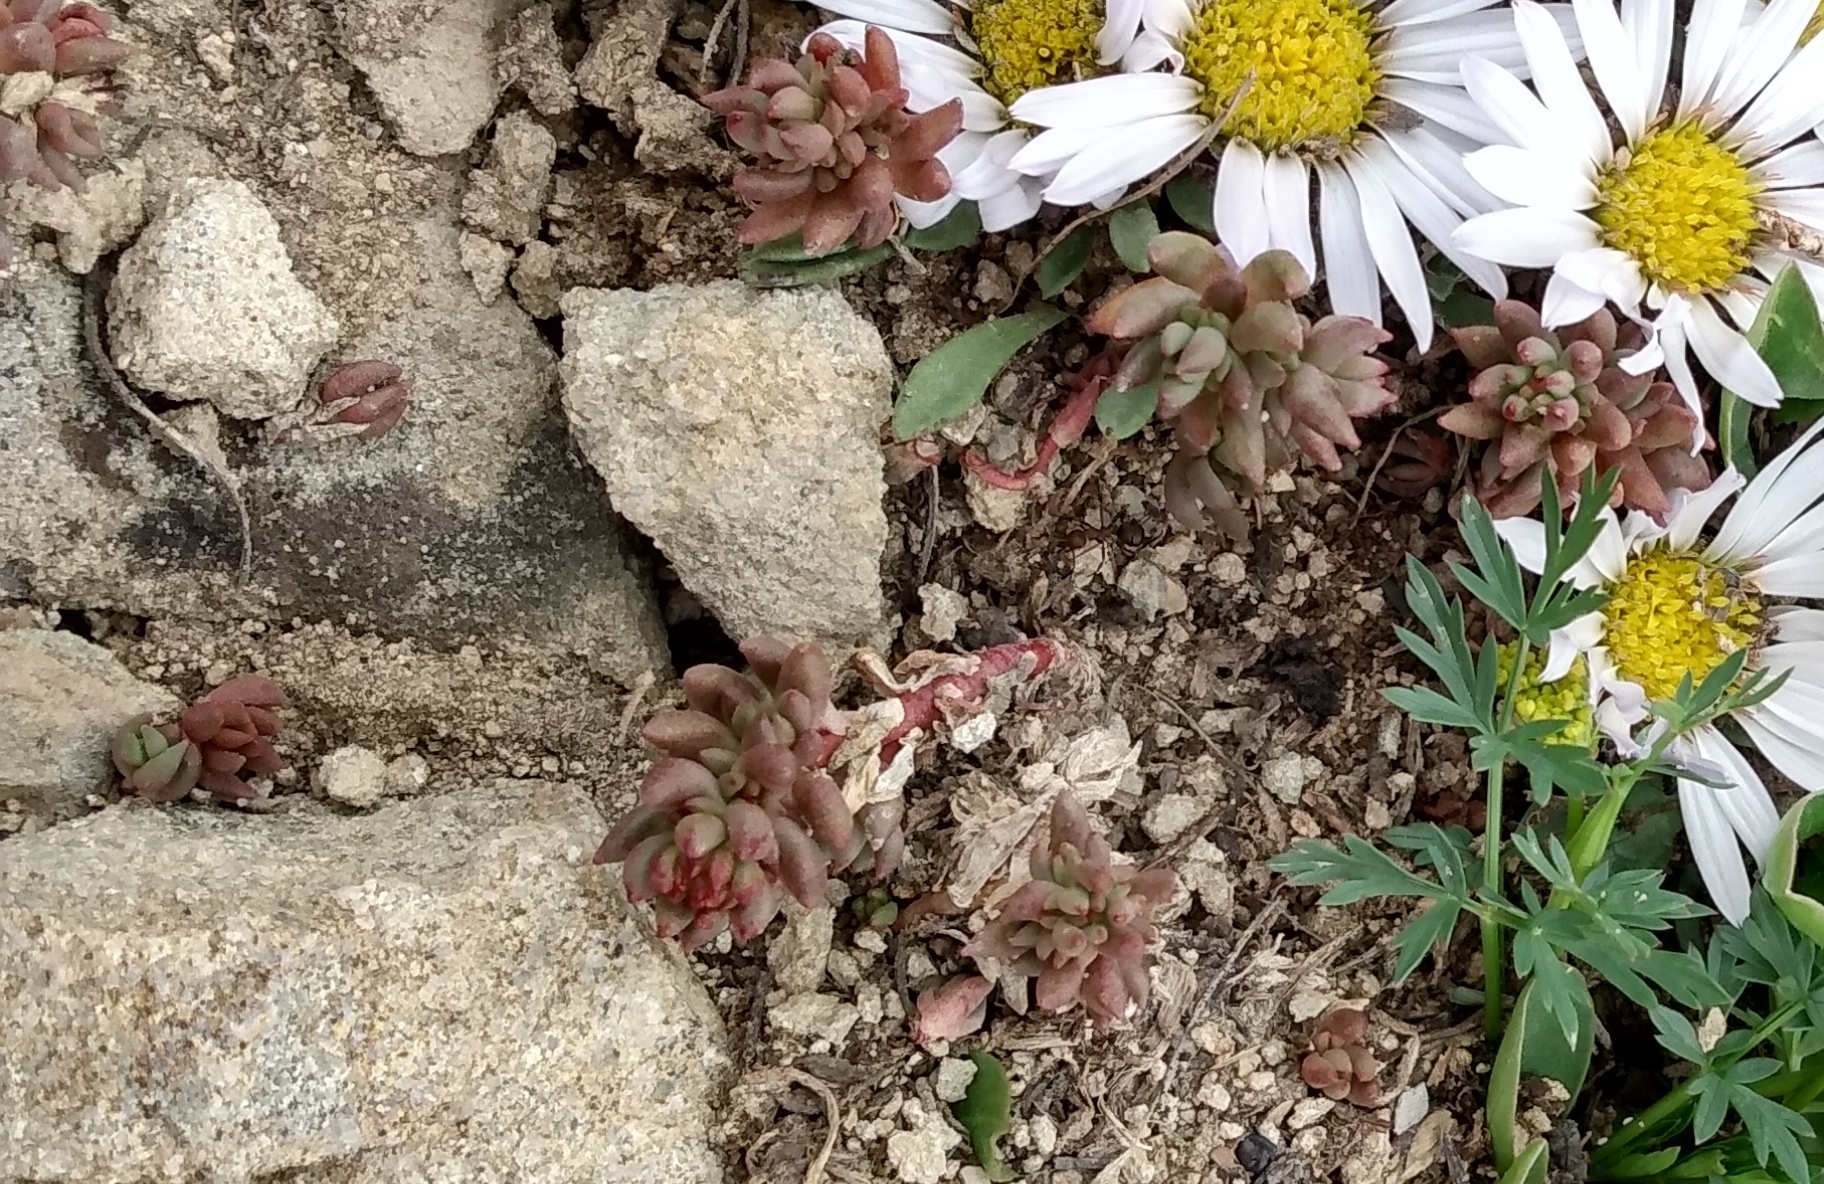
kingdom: Plantae
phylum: Tracheophyta
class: Magnoliopsida
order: Saxifragales
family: Crassulaceae
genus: Sedum
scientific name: Sedum lanceolatum
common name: Common stonecrop
